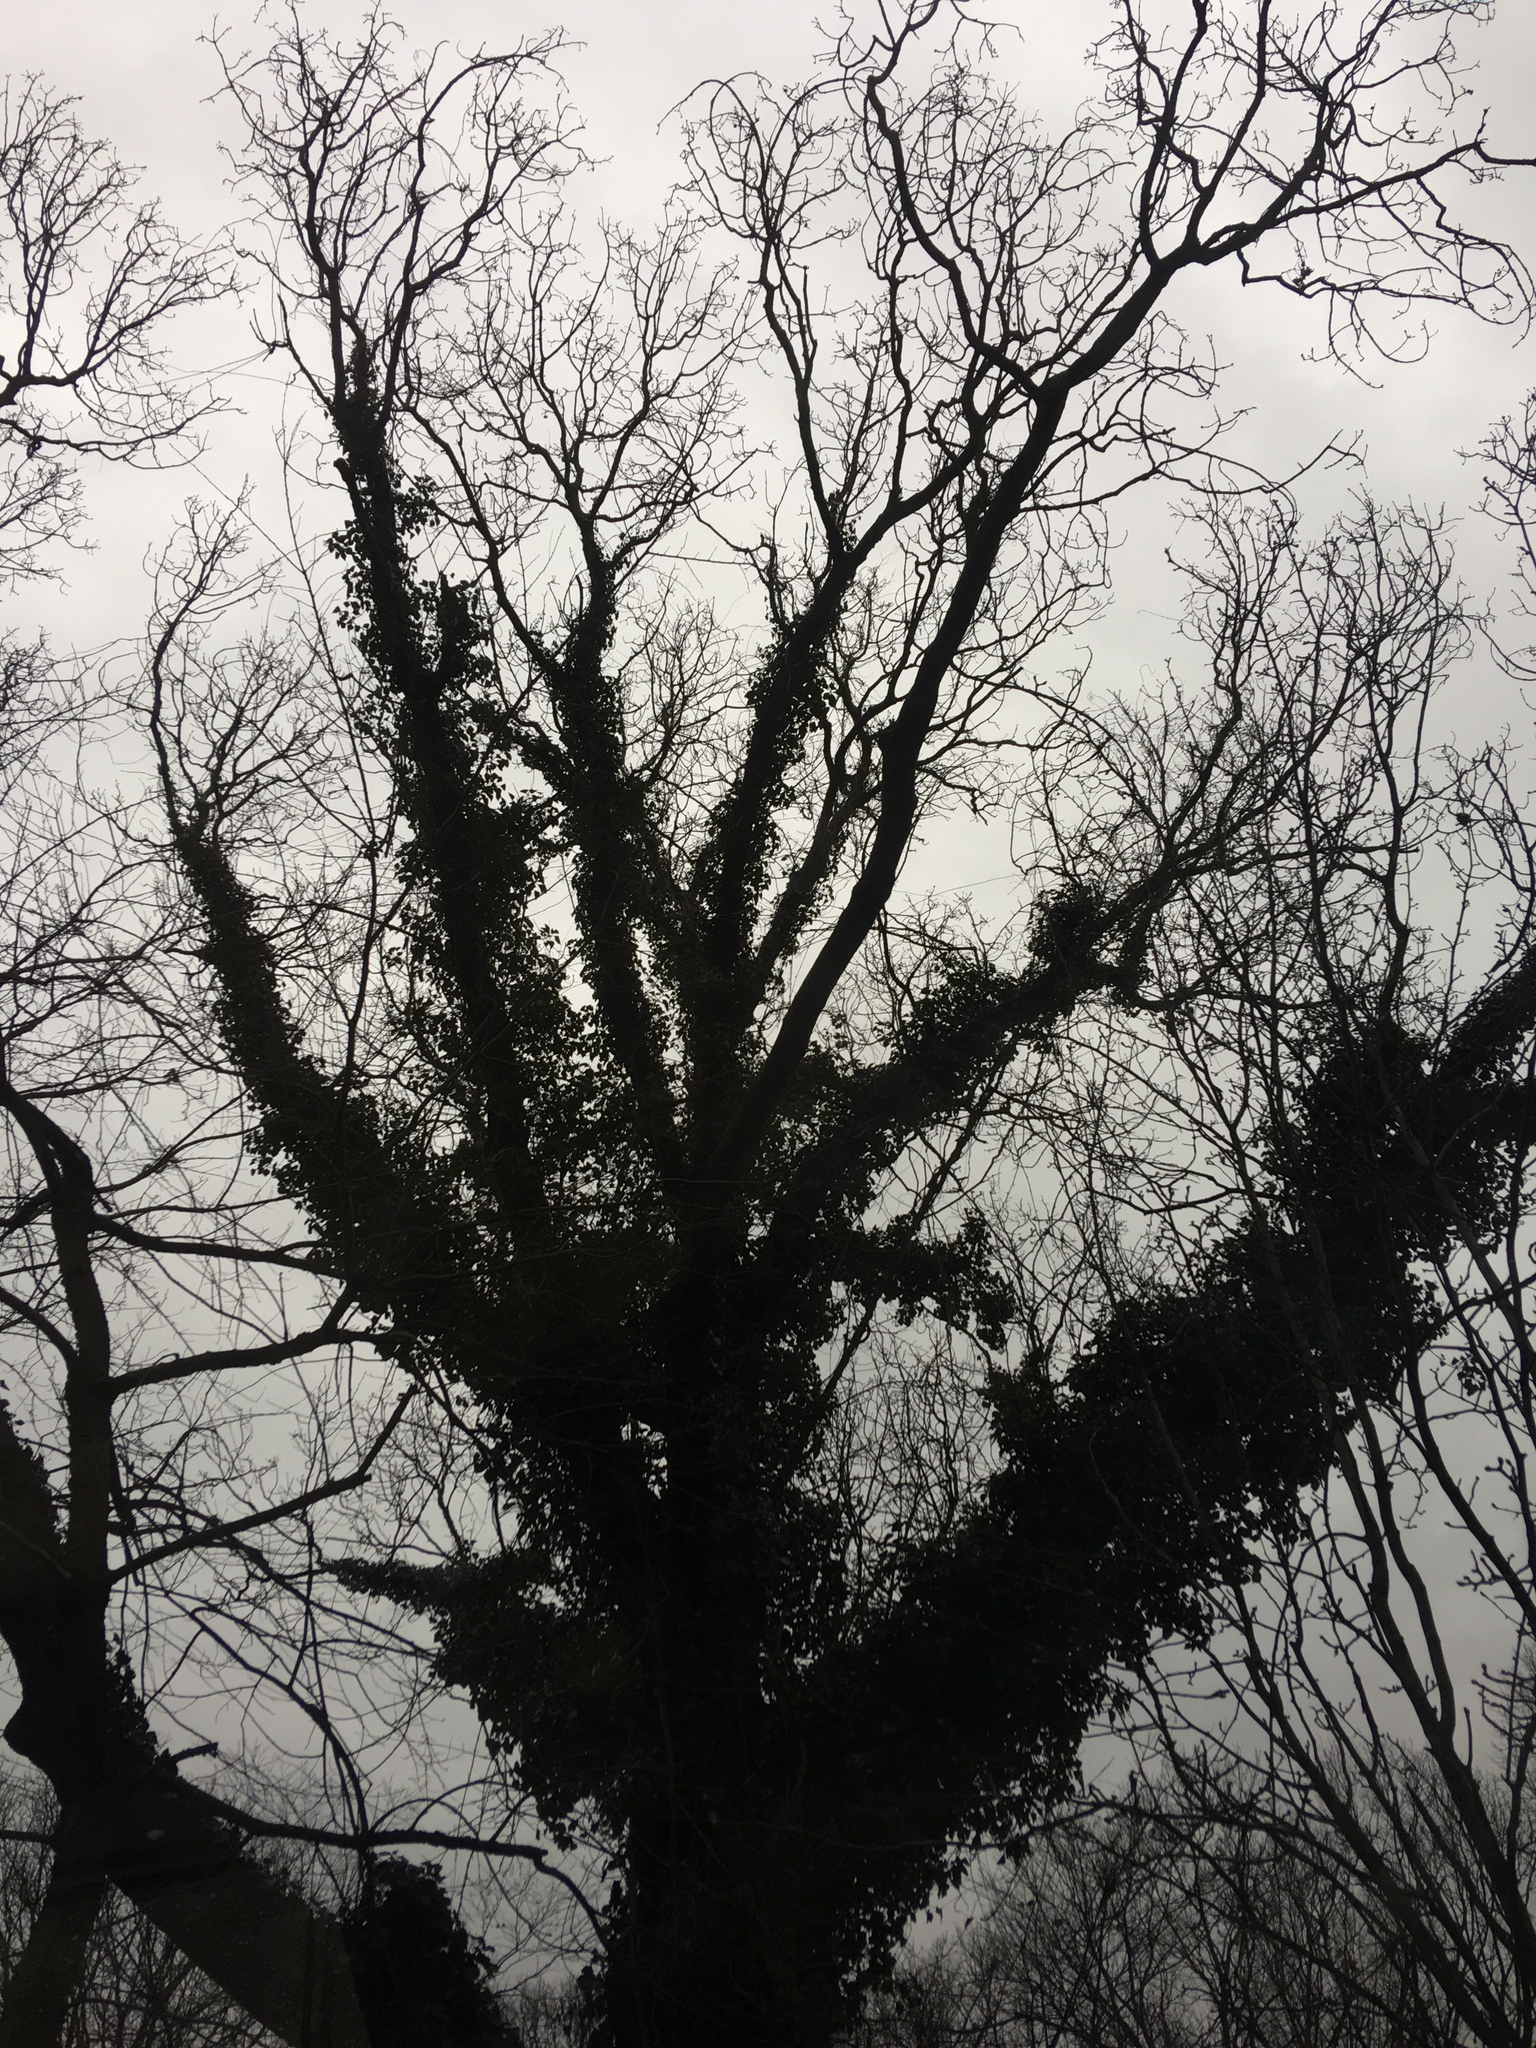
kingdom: Plantae
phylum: Tracheophyta
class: Magnoliopsida
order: Apiales
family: Araliaceae
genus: Hedera
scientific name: Hedera helix
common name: Ivy
